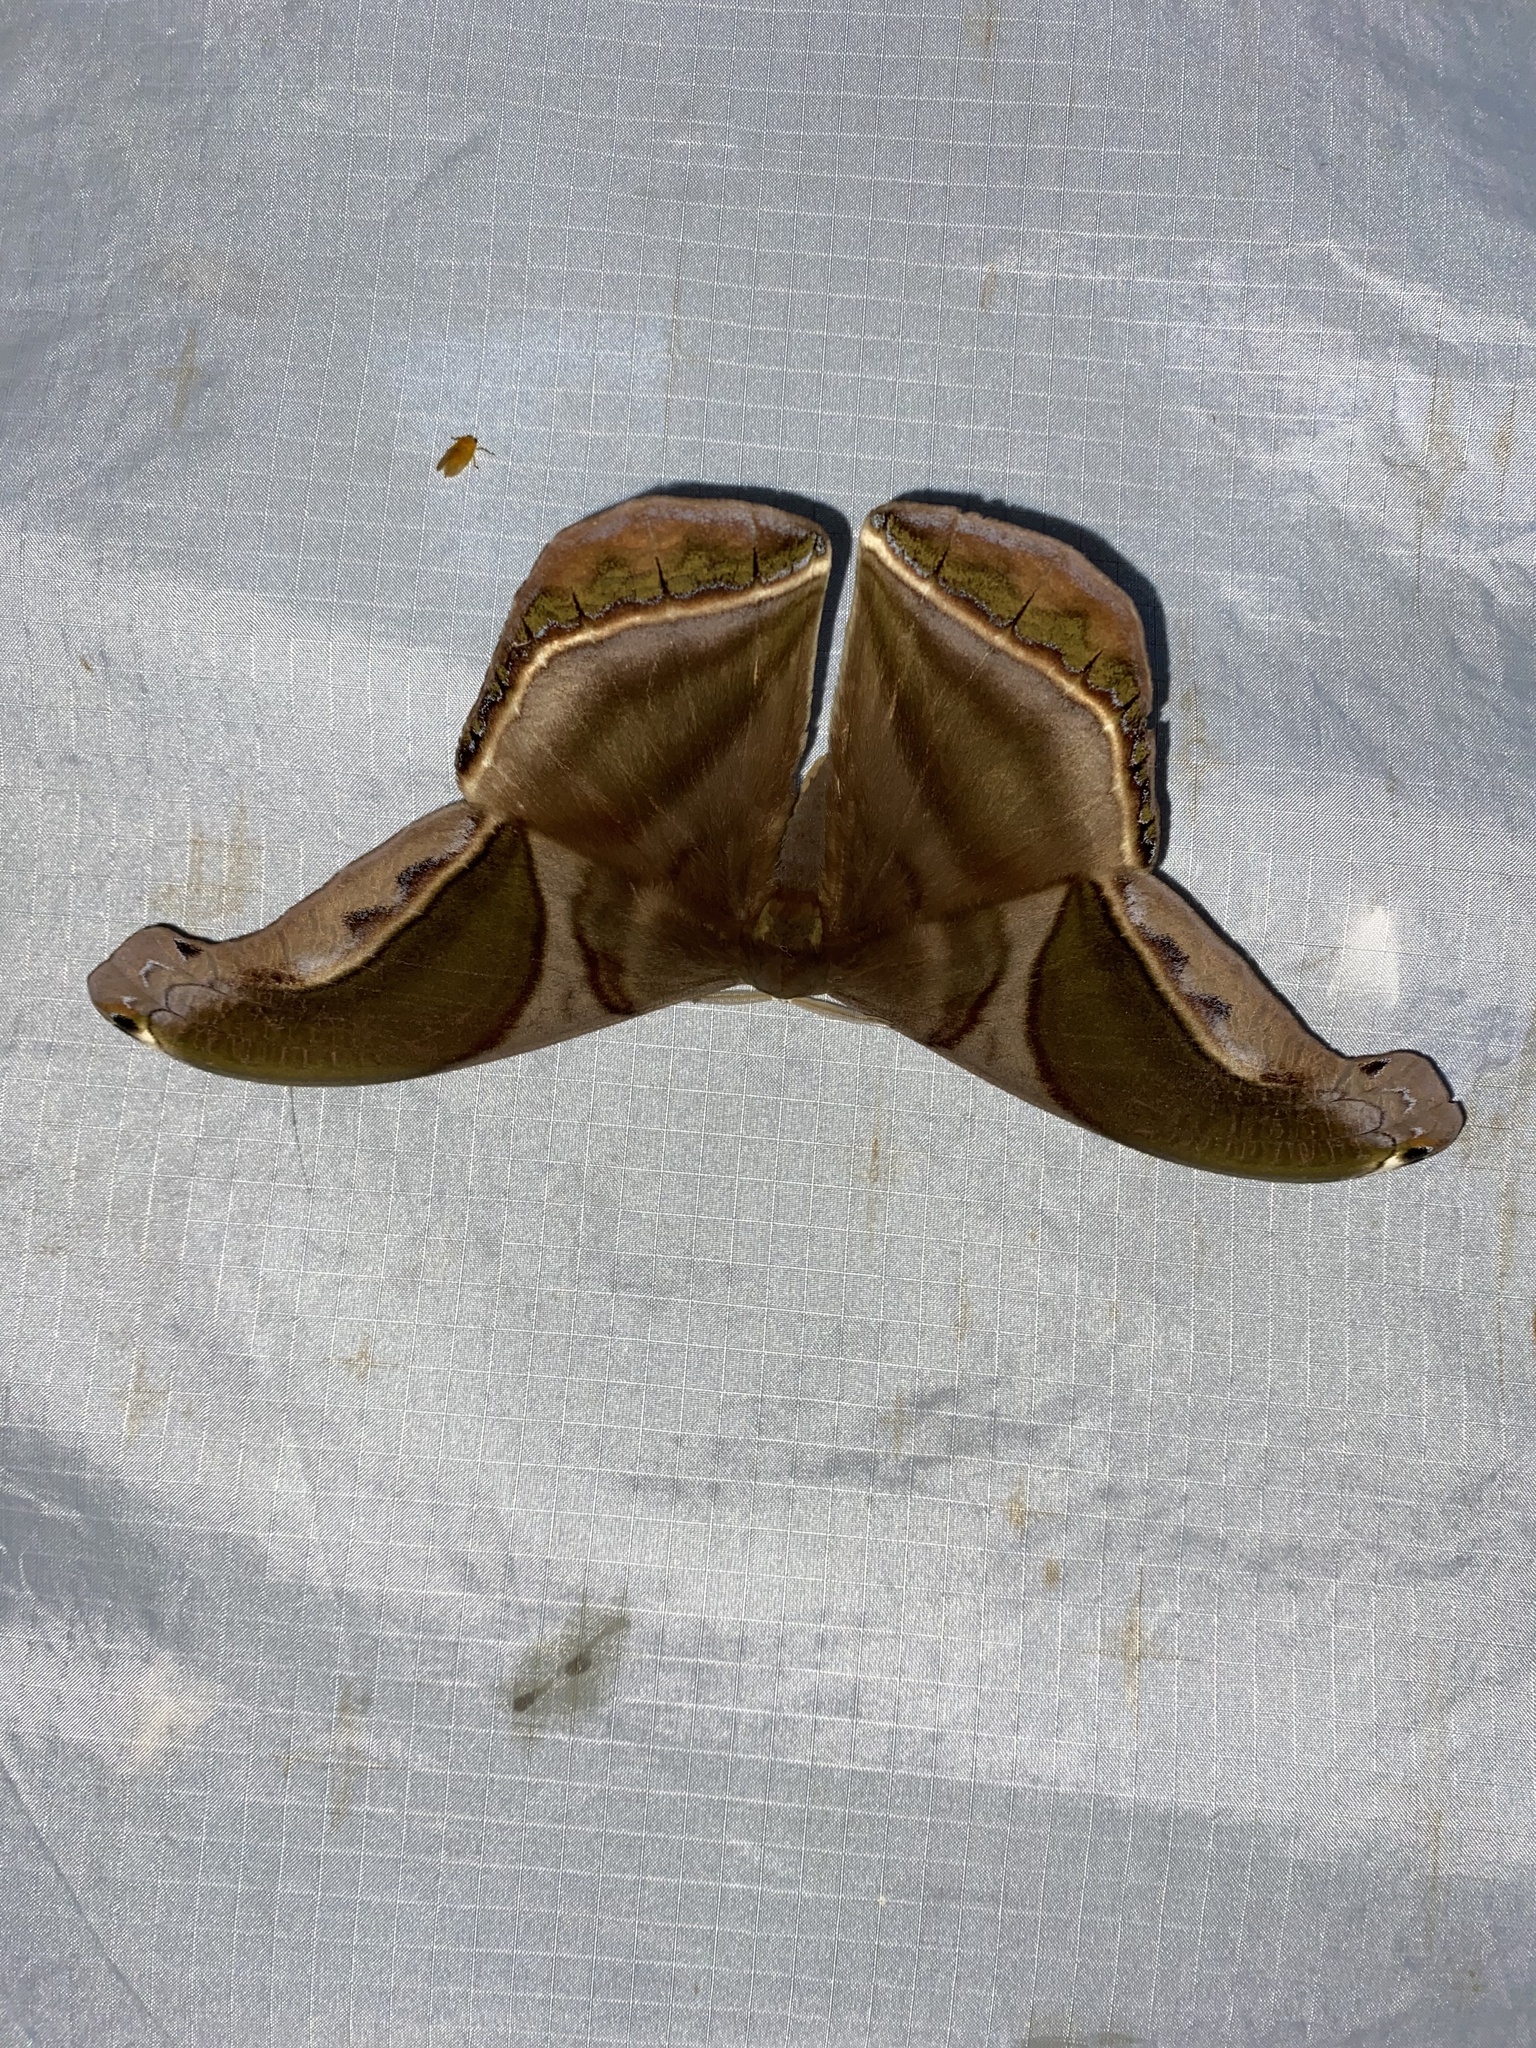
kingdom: Animalia
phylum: Arthropoda
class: Insecta
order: Lepidoptera
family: Saturniidae
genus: Rhescyntis
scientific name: Rhescyntis hippodamia
